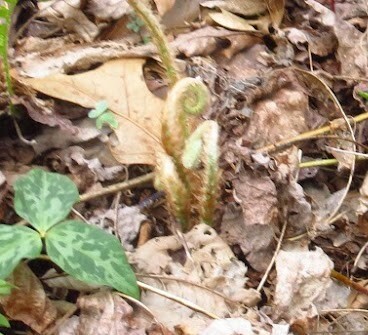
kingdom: Plantae
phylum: Tracheophyta
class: Polypodiopsida
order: Polypodiales
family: Dryopteridaceae
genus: Polystichum
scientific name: Polystichum acrostichoides
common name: Christmas fern
